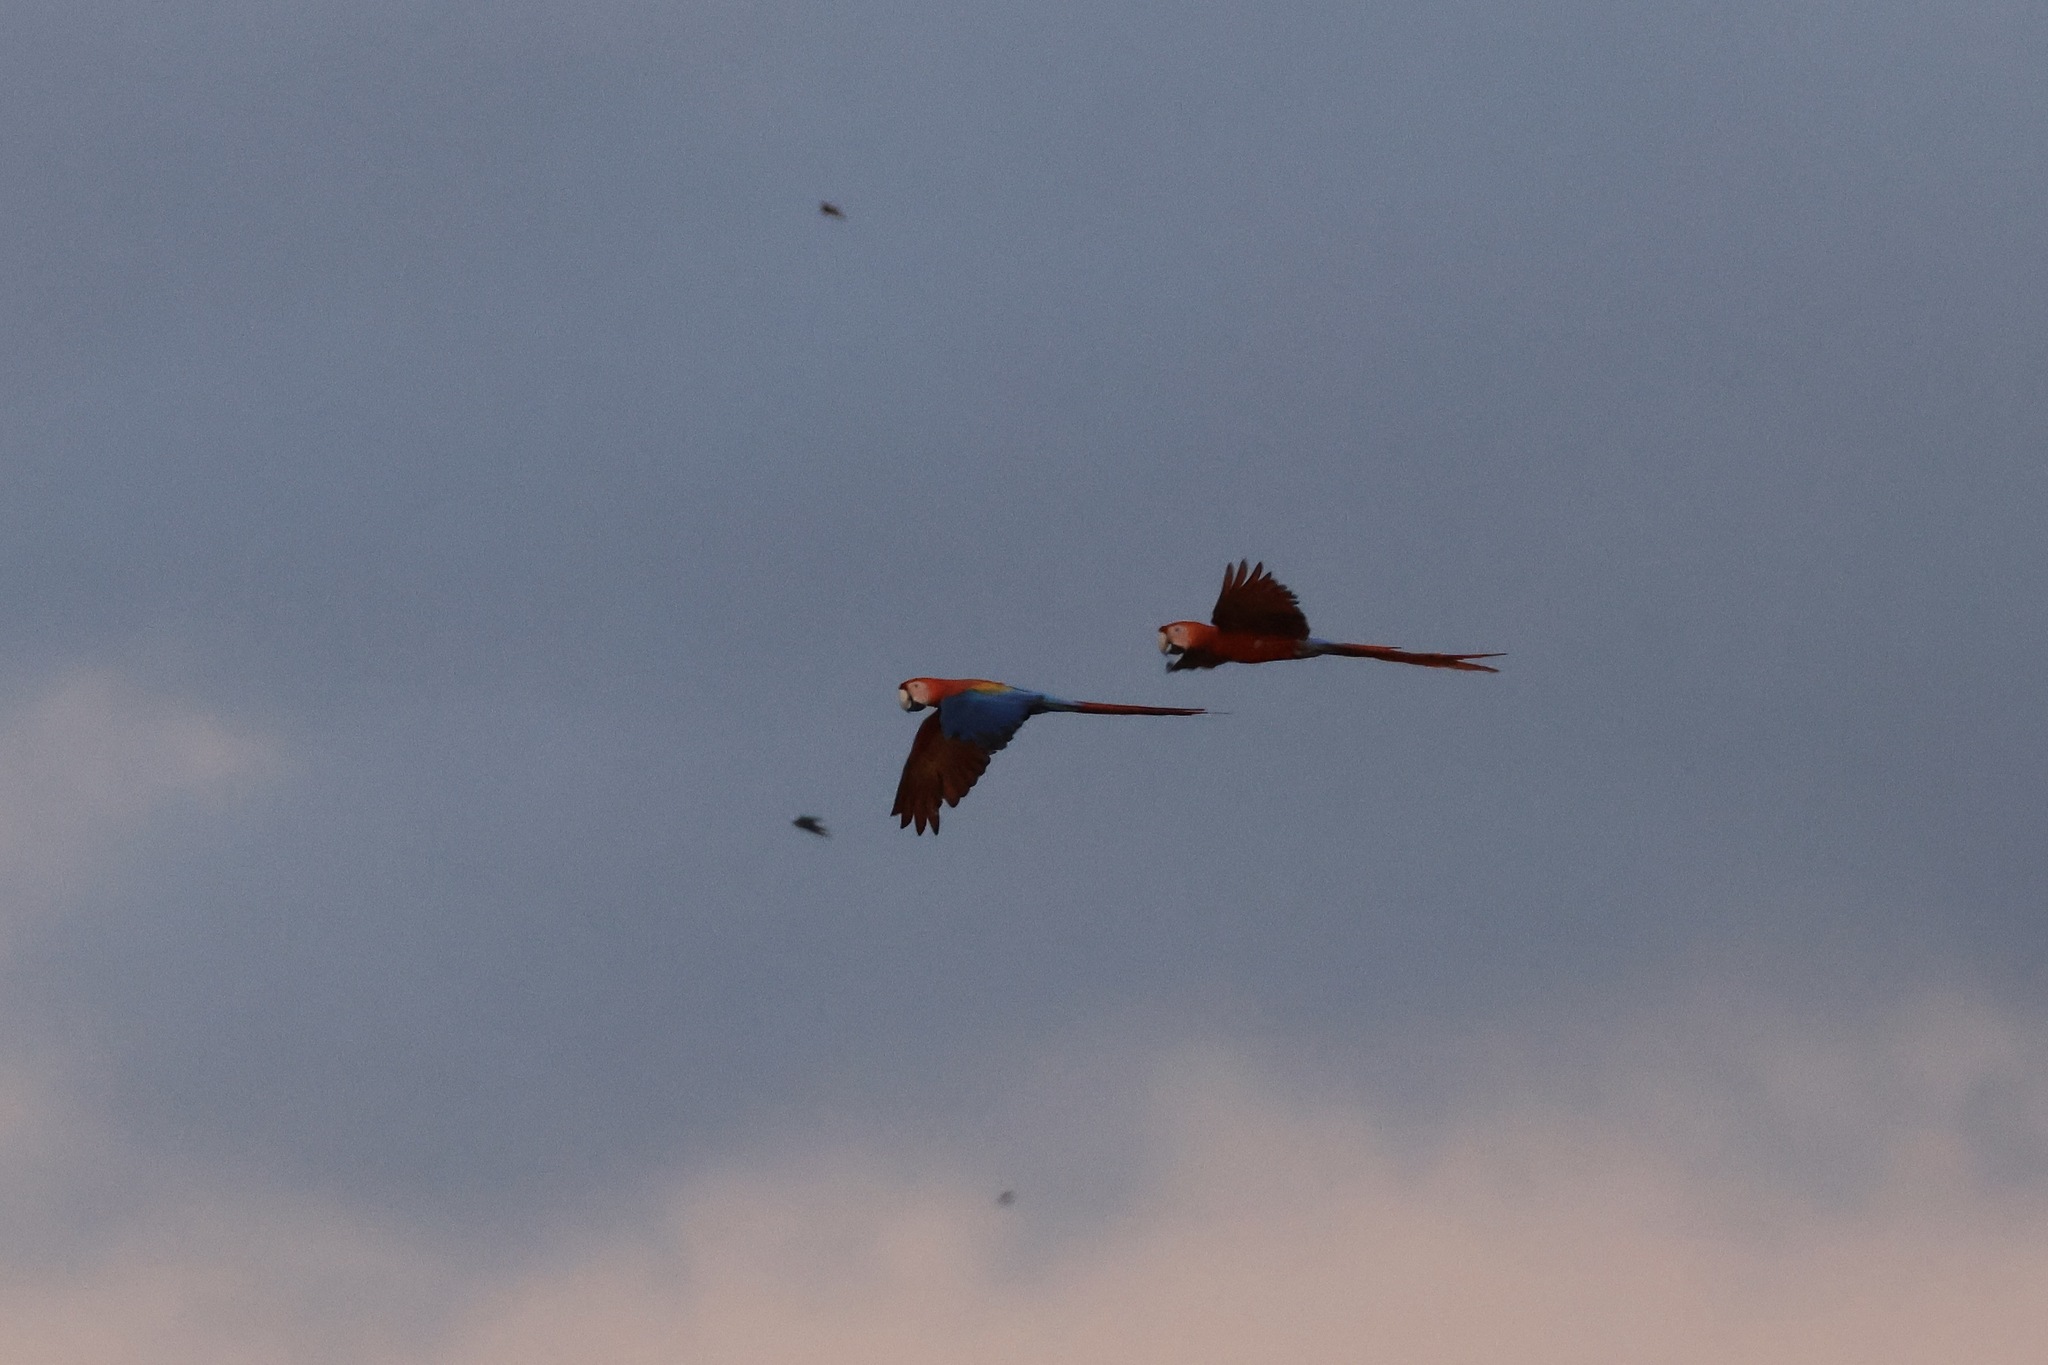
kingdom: Animalia
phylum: Chordata
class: Aves
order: Psittaciformes
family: Psittacidae
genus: Ara
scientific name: Ara macao
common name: Scarlet macaw
